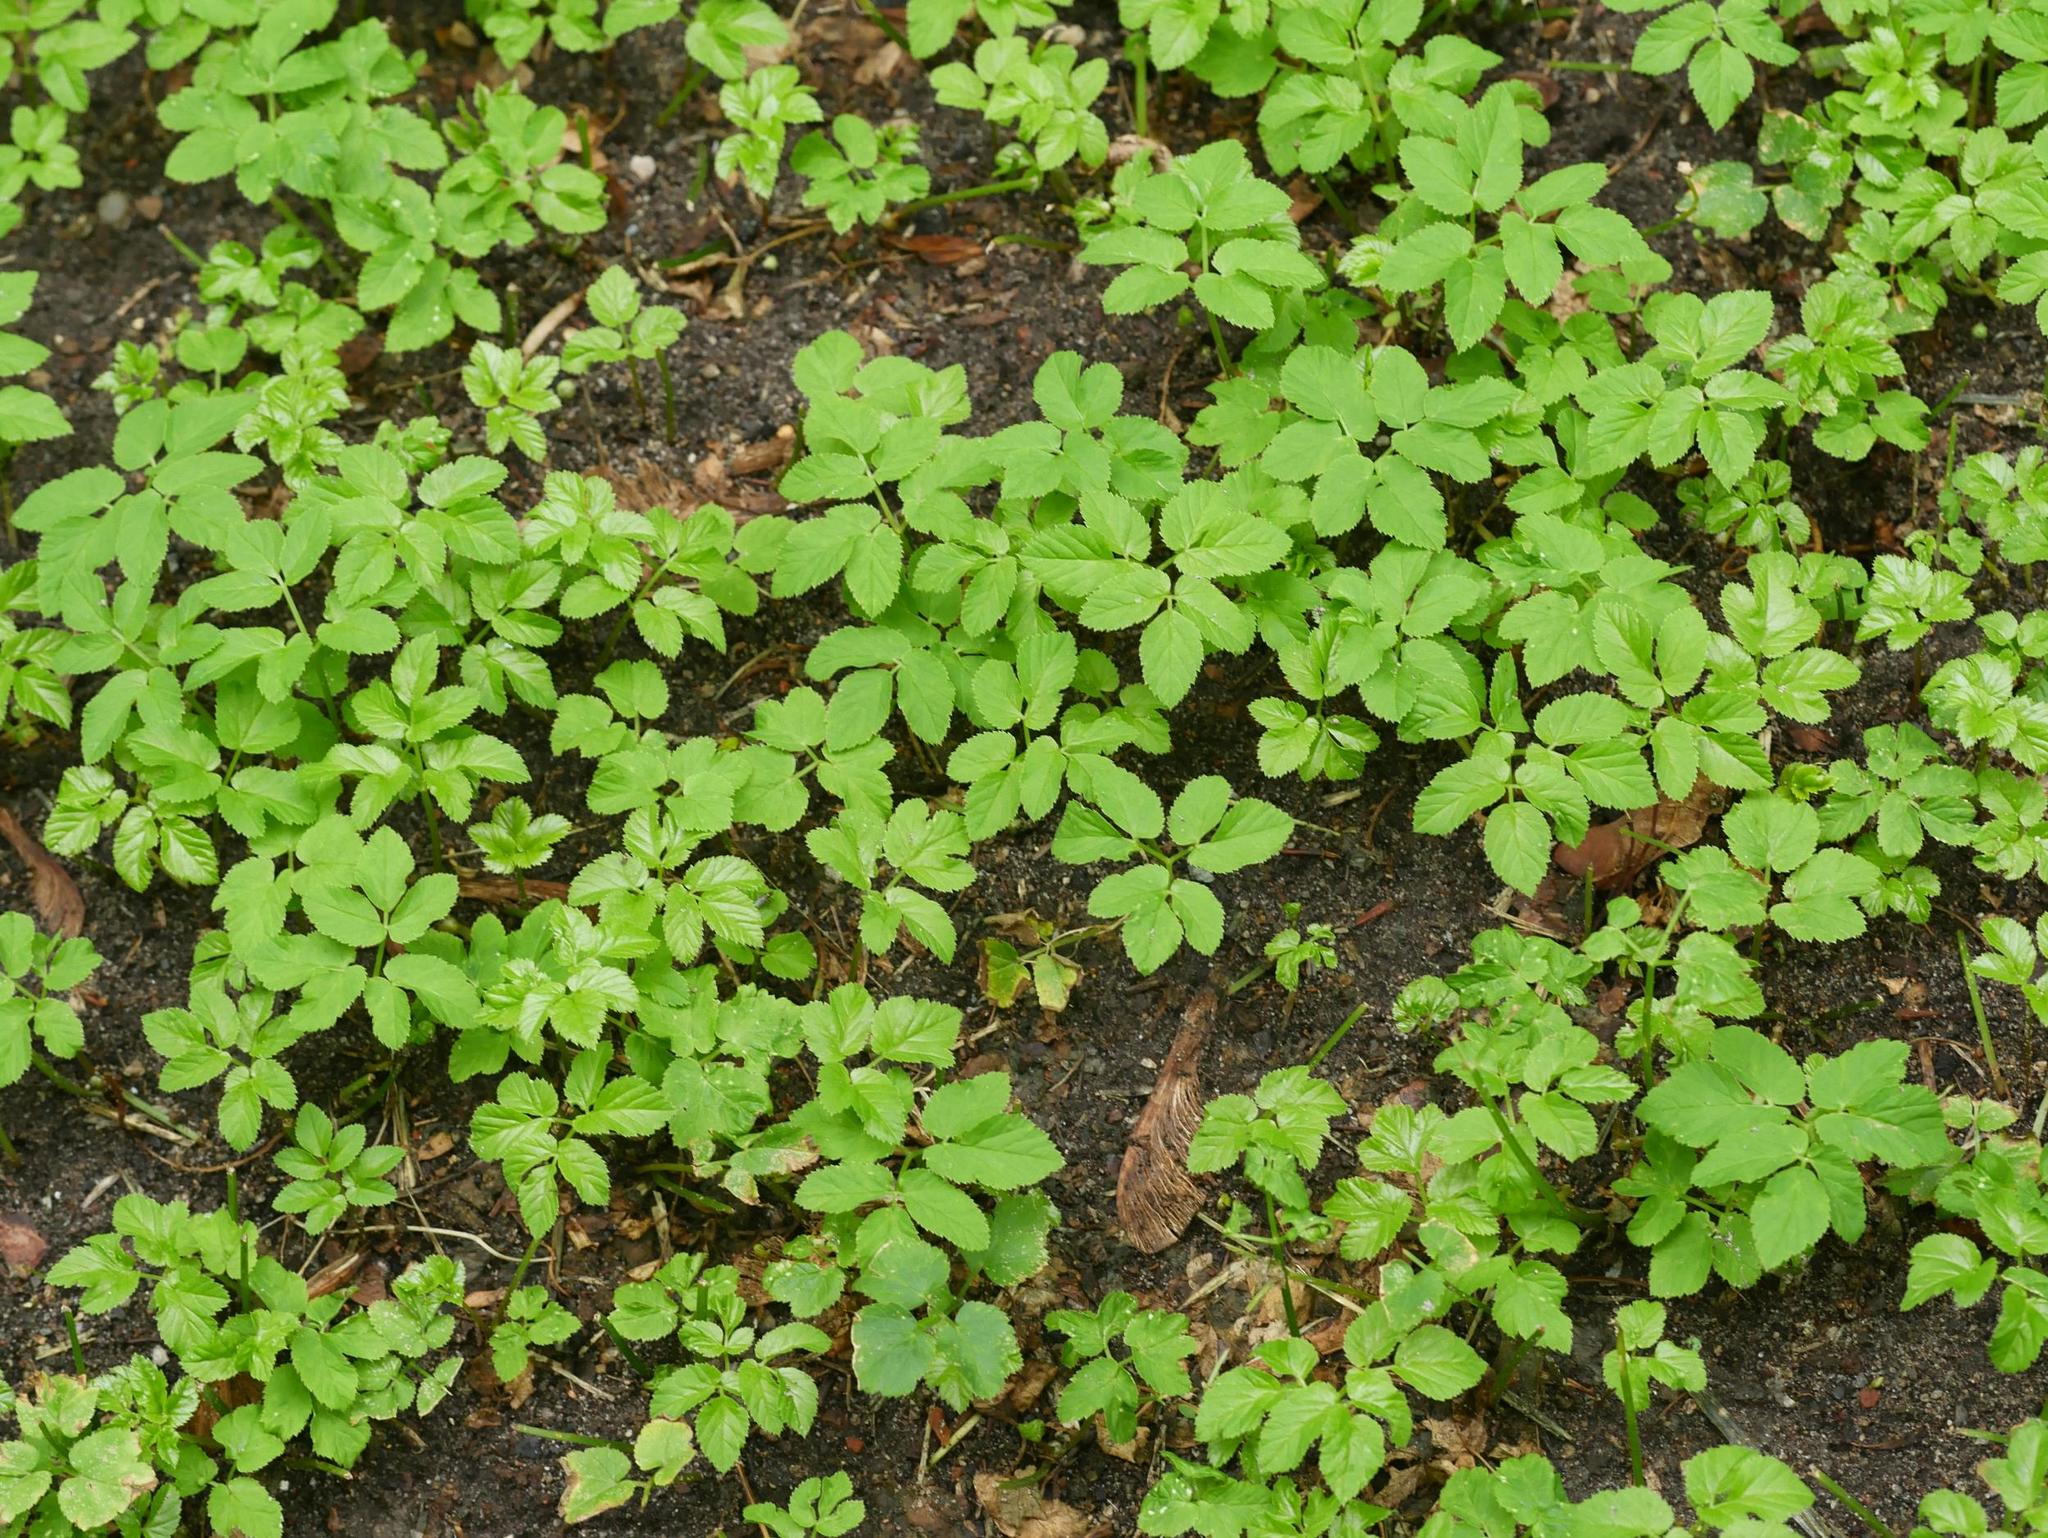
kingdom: Plantae
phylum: Tracheophyta
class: Magnoliopsida
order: Apiales
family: Apiaceae
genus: Aegopodium
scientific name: Aegopodium podagraria
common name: Ground-elder
